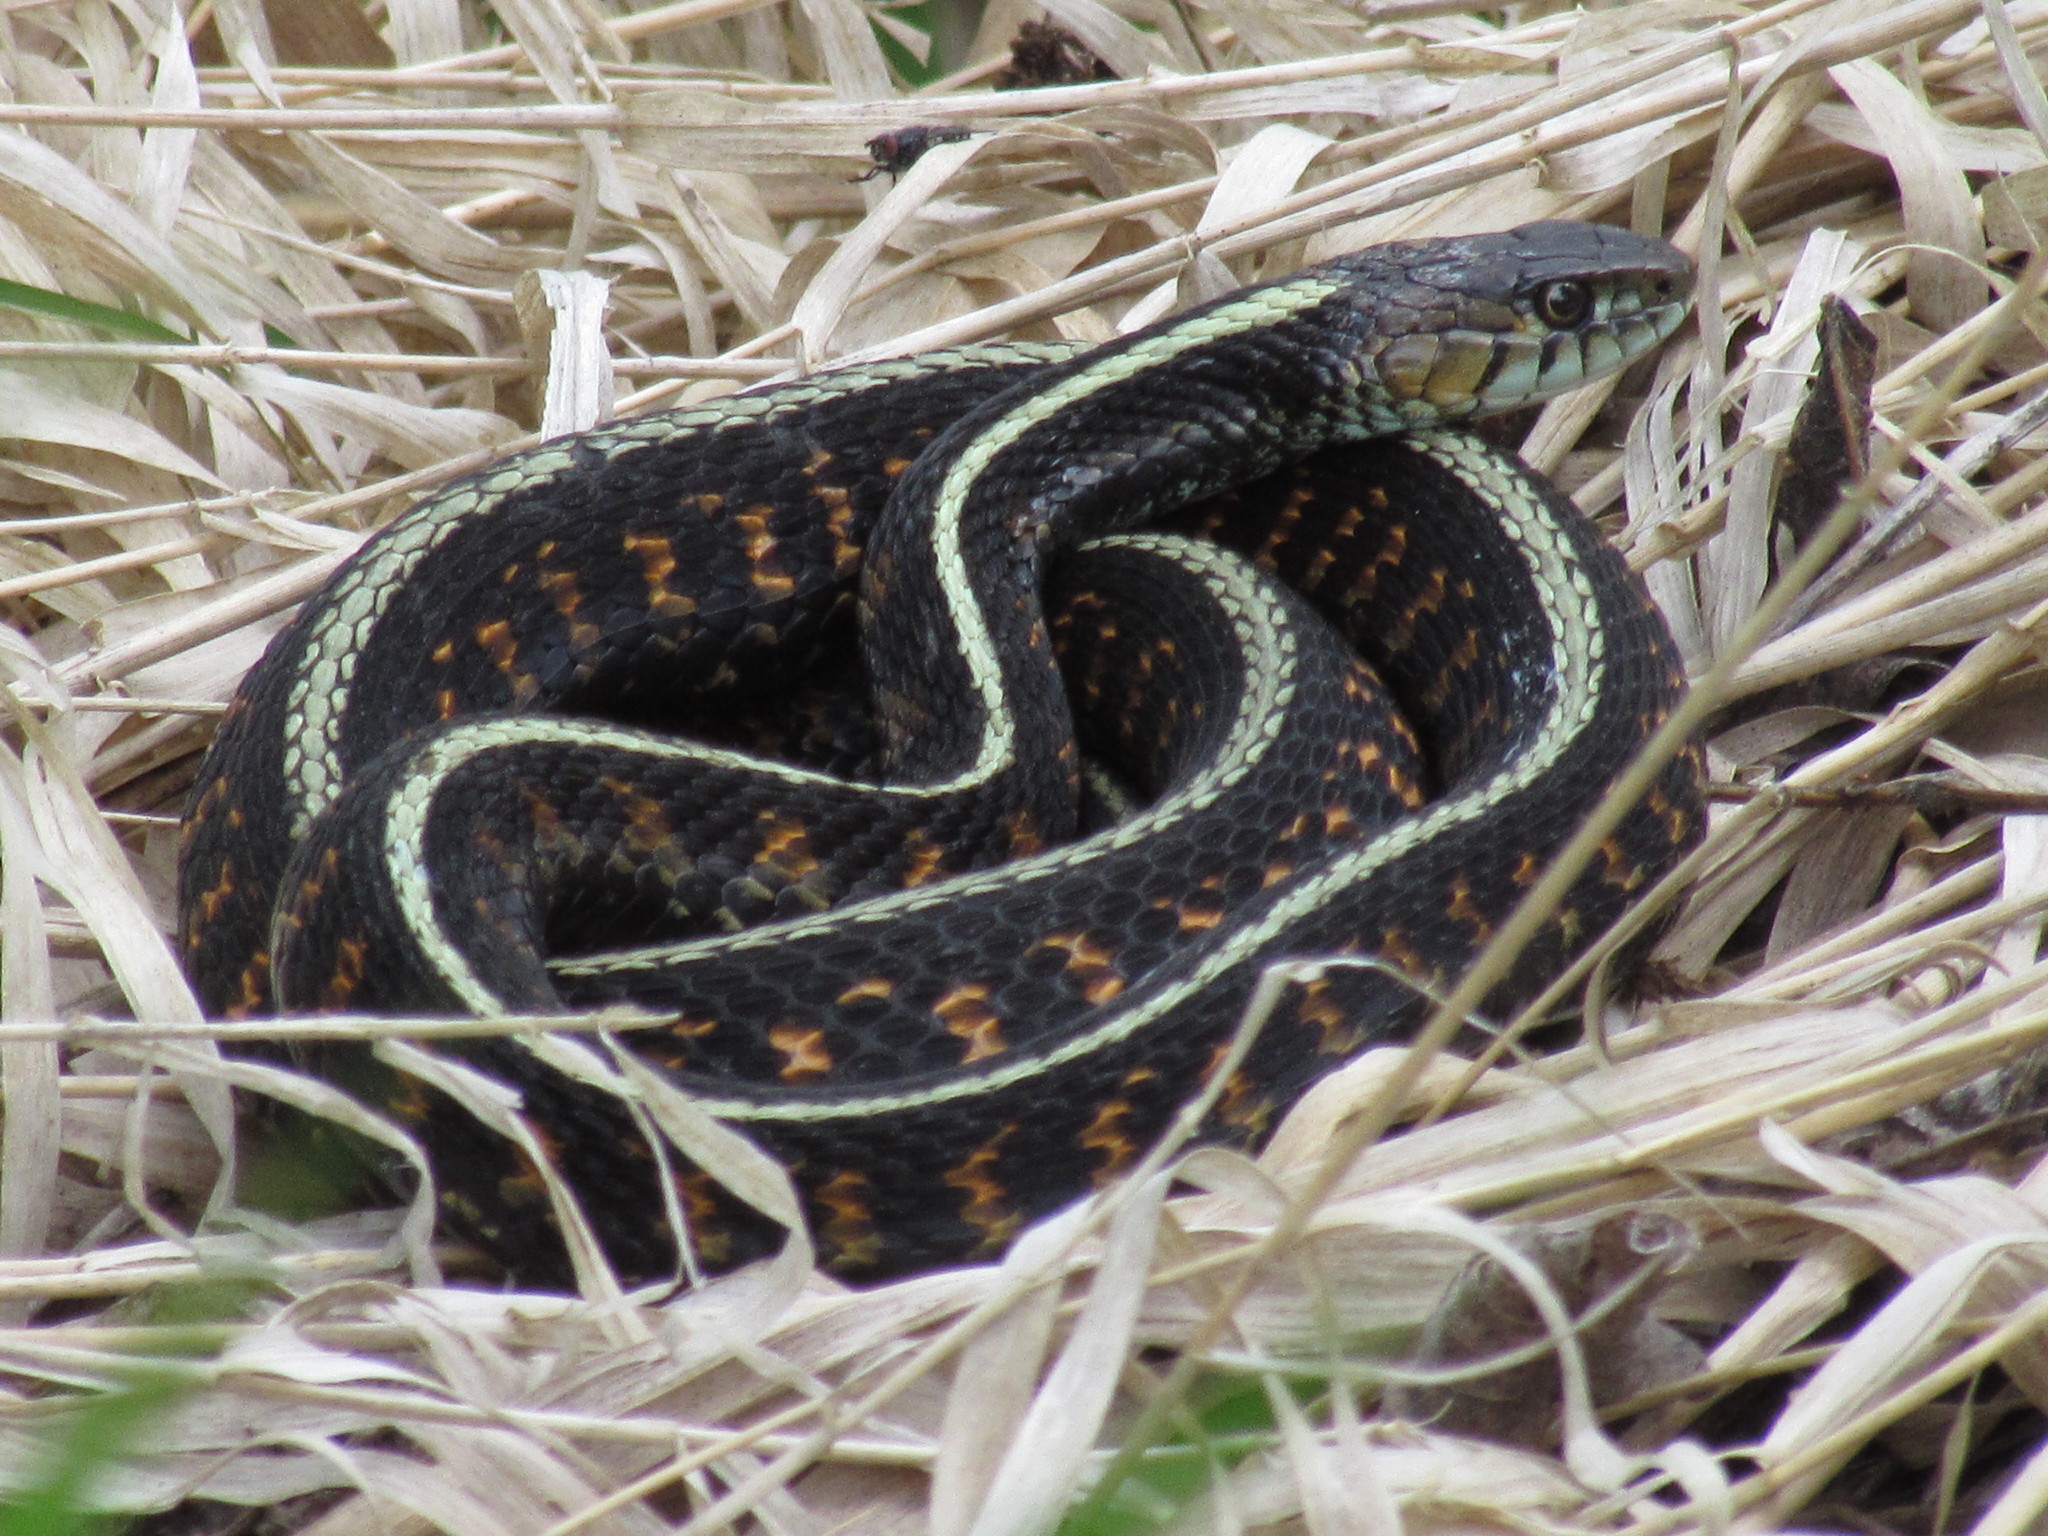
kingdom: Animalia
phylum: Chordata
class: Squamata
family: Colubridae
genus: Thamnophis
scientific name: Thamnophis sirtalis
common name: Common garter snake
